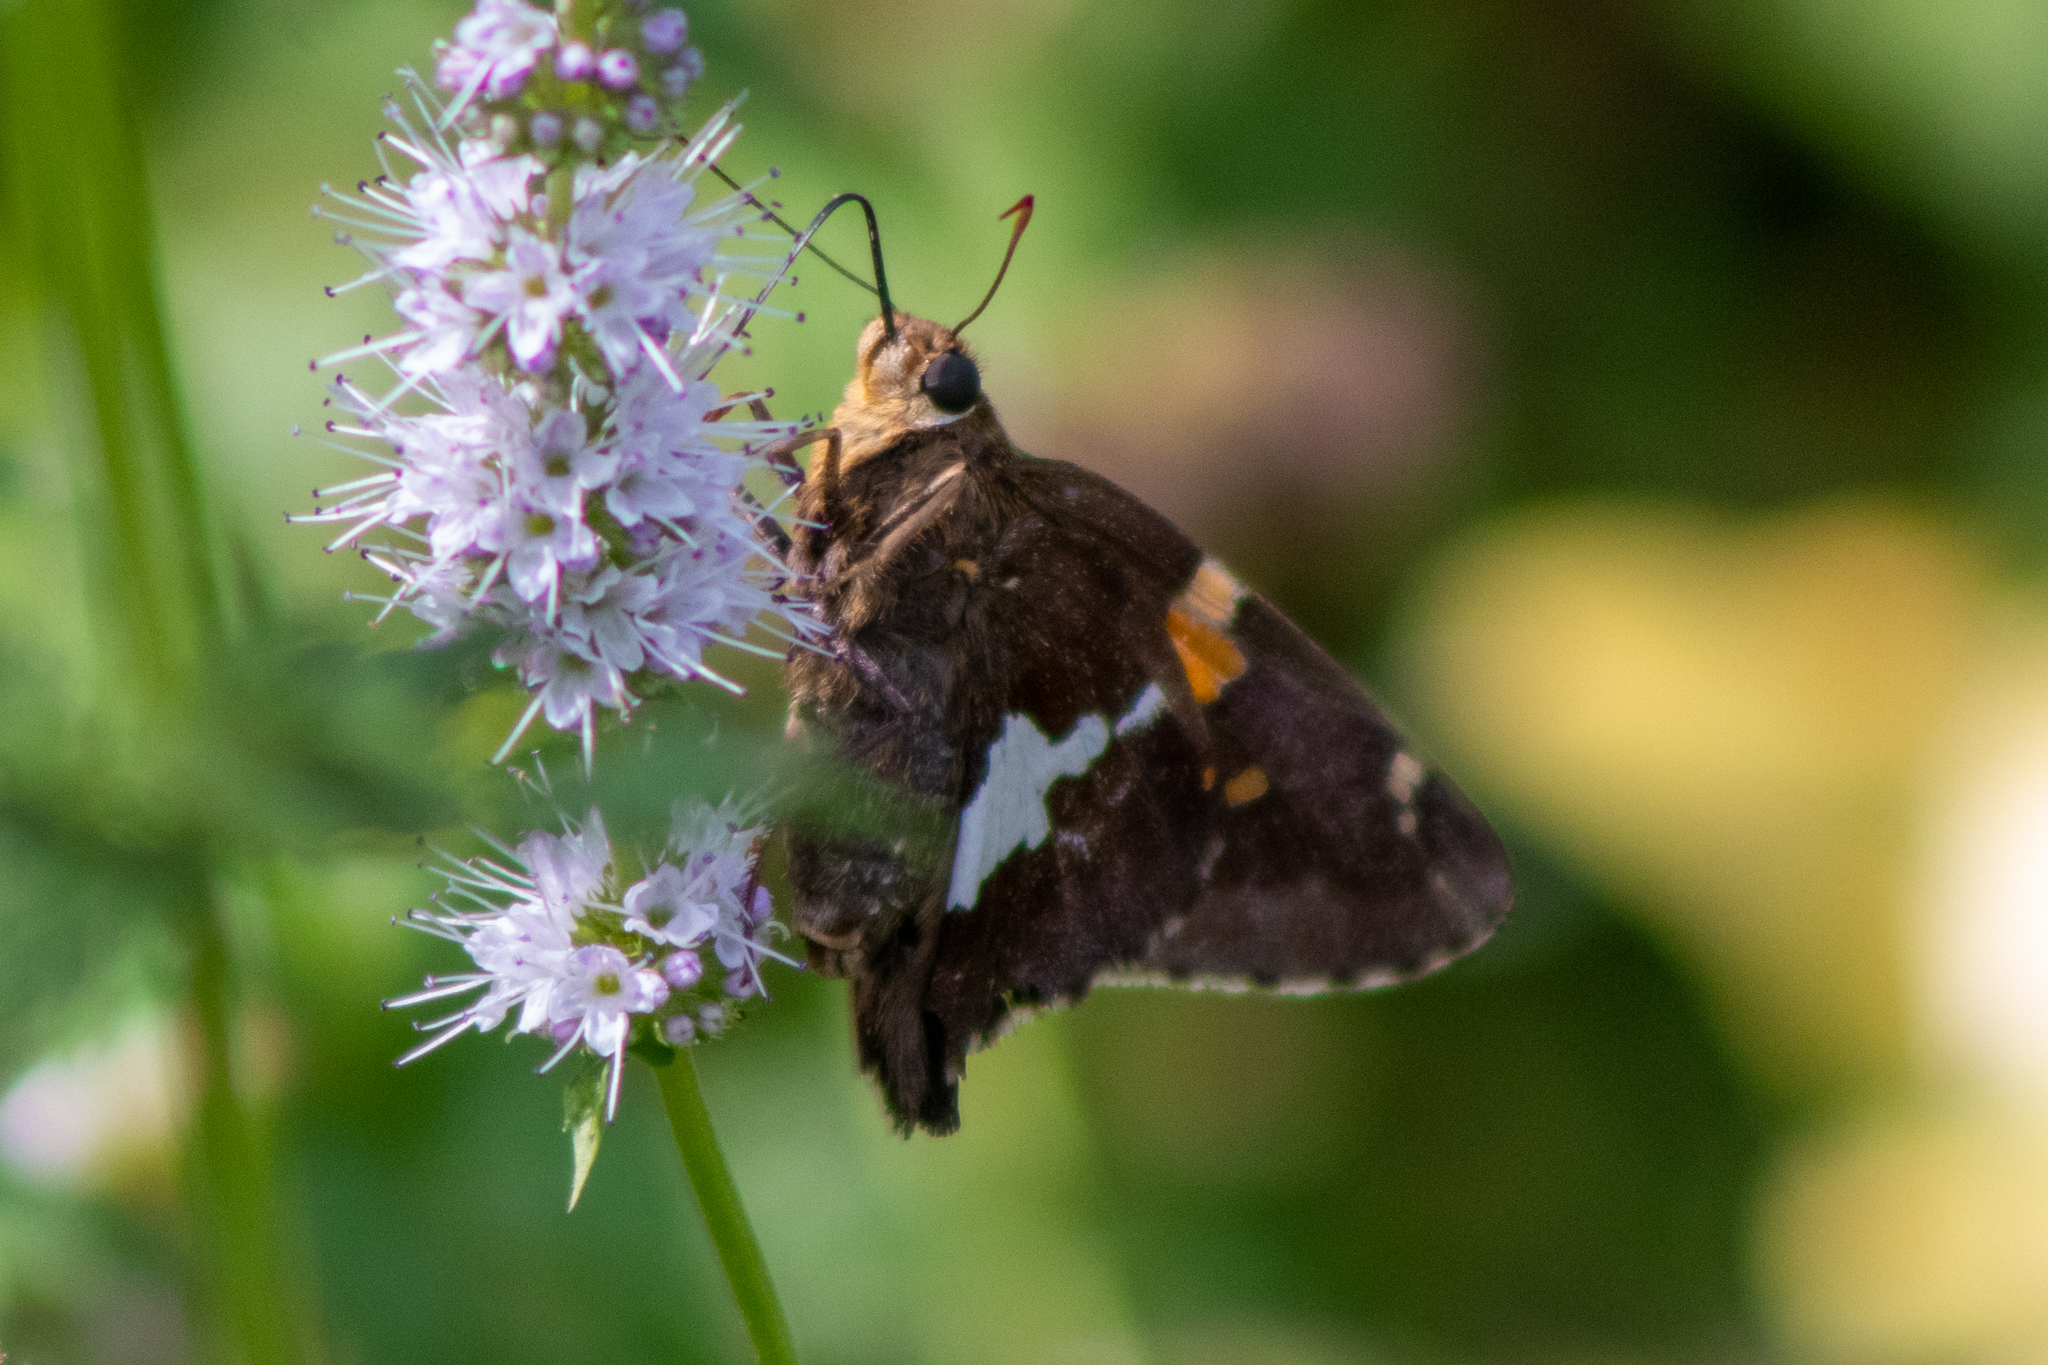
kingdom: Animalia
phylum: Arthropoda
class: Insecta
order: Lepidoptera
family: Hesperiidae
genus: Epargyreus
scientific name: Epargyreus clarus
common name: Silver-spotted skipper
